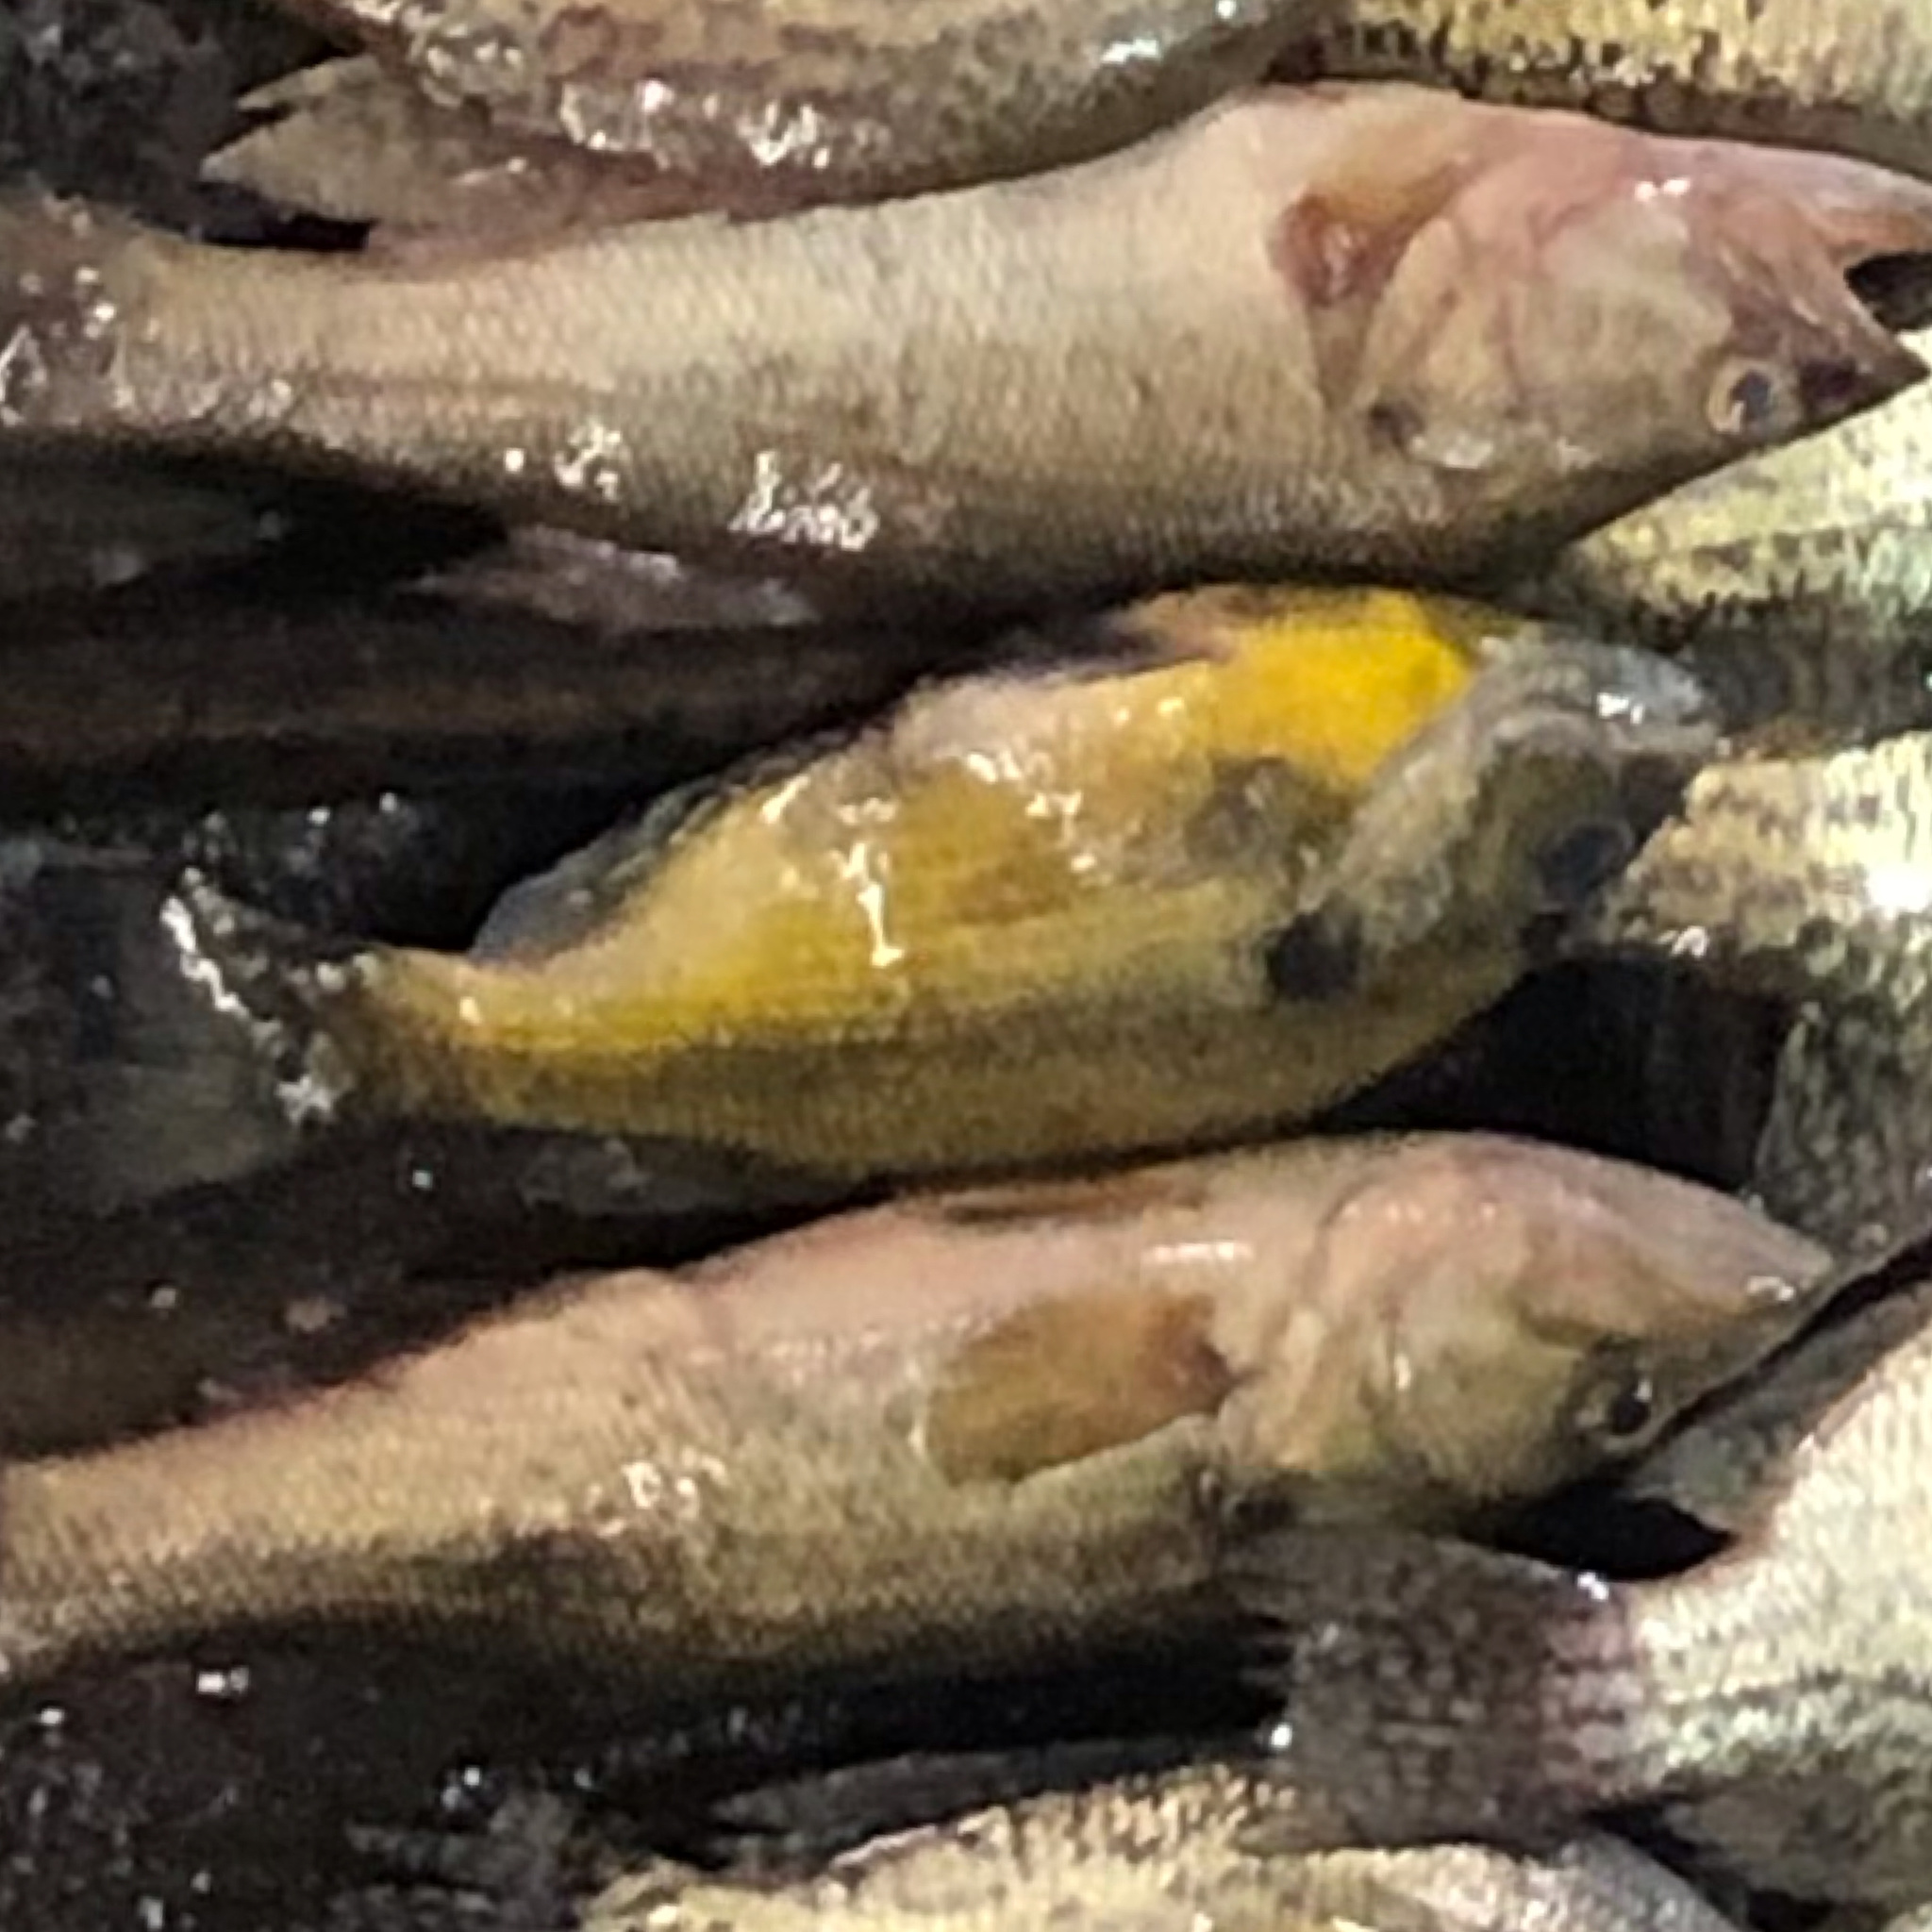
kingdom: Animalia
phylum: Chordata
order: Perciformes
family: Centrarchidae
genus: Lepomis
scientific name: Lepomis macrochirus
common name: Bluegill
